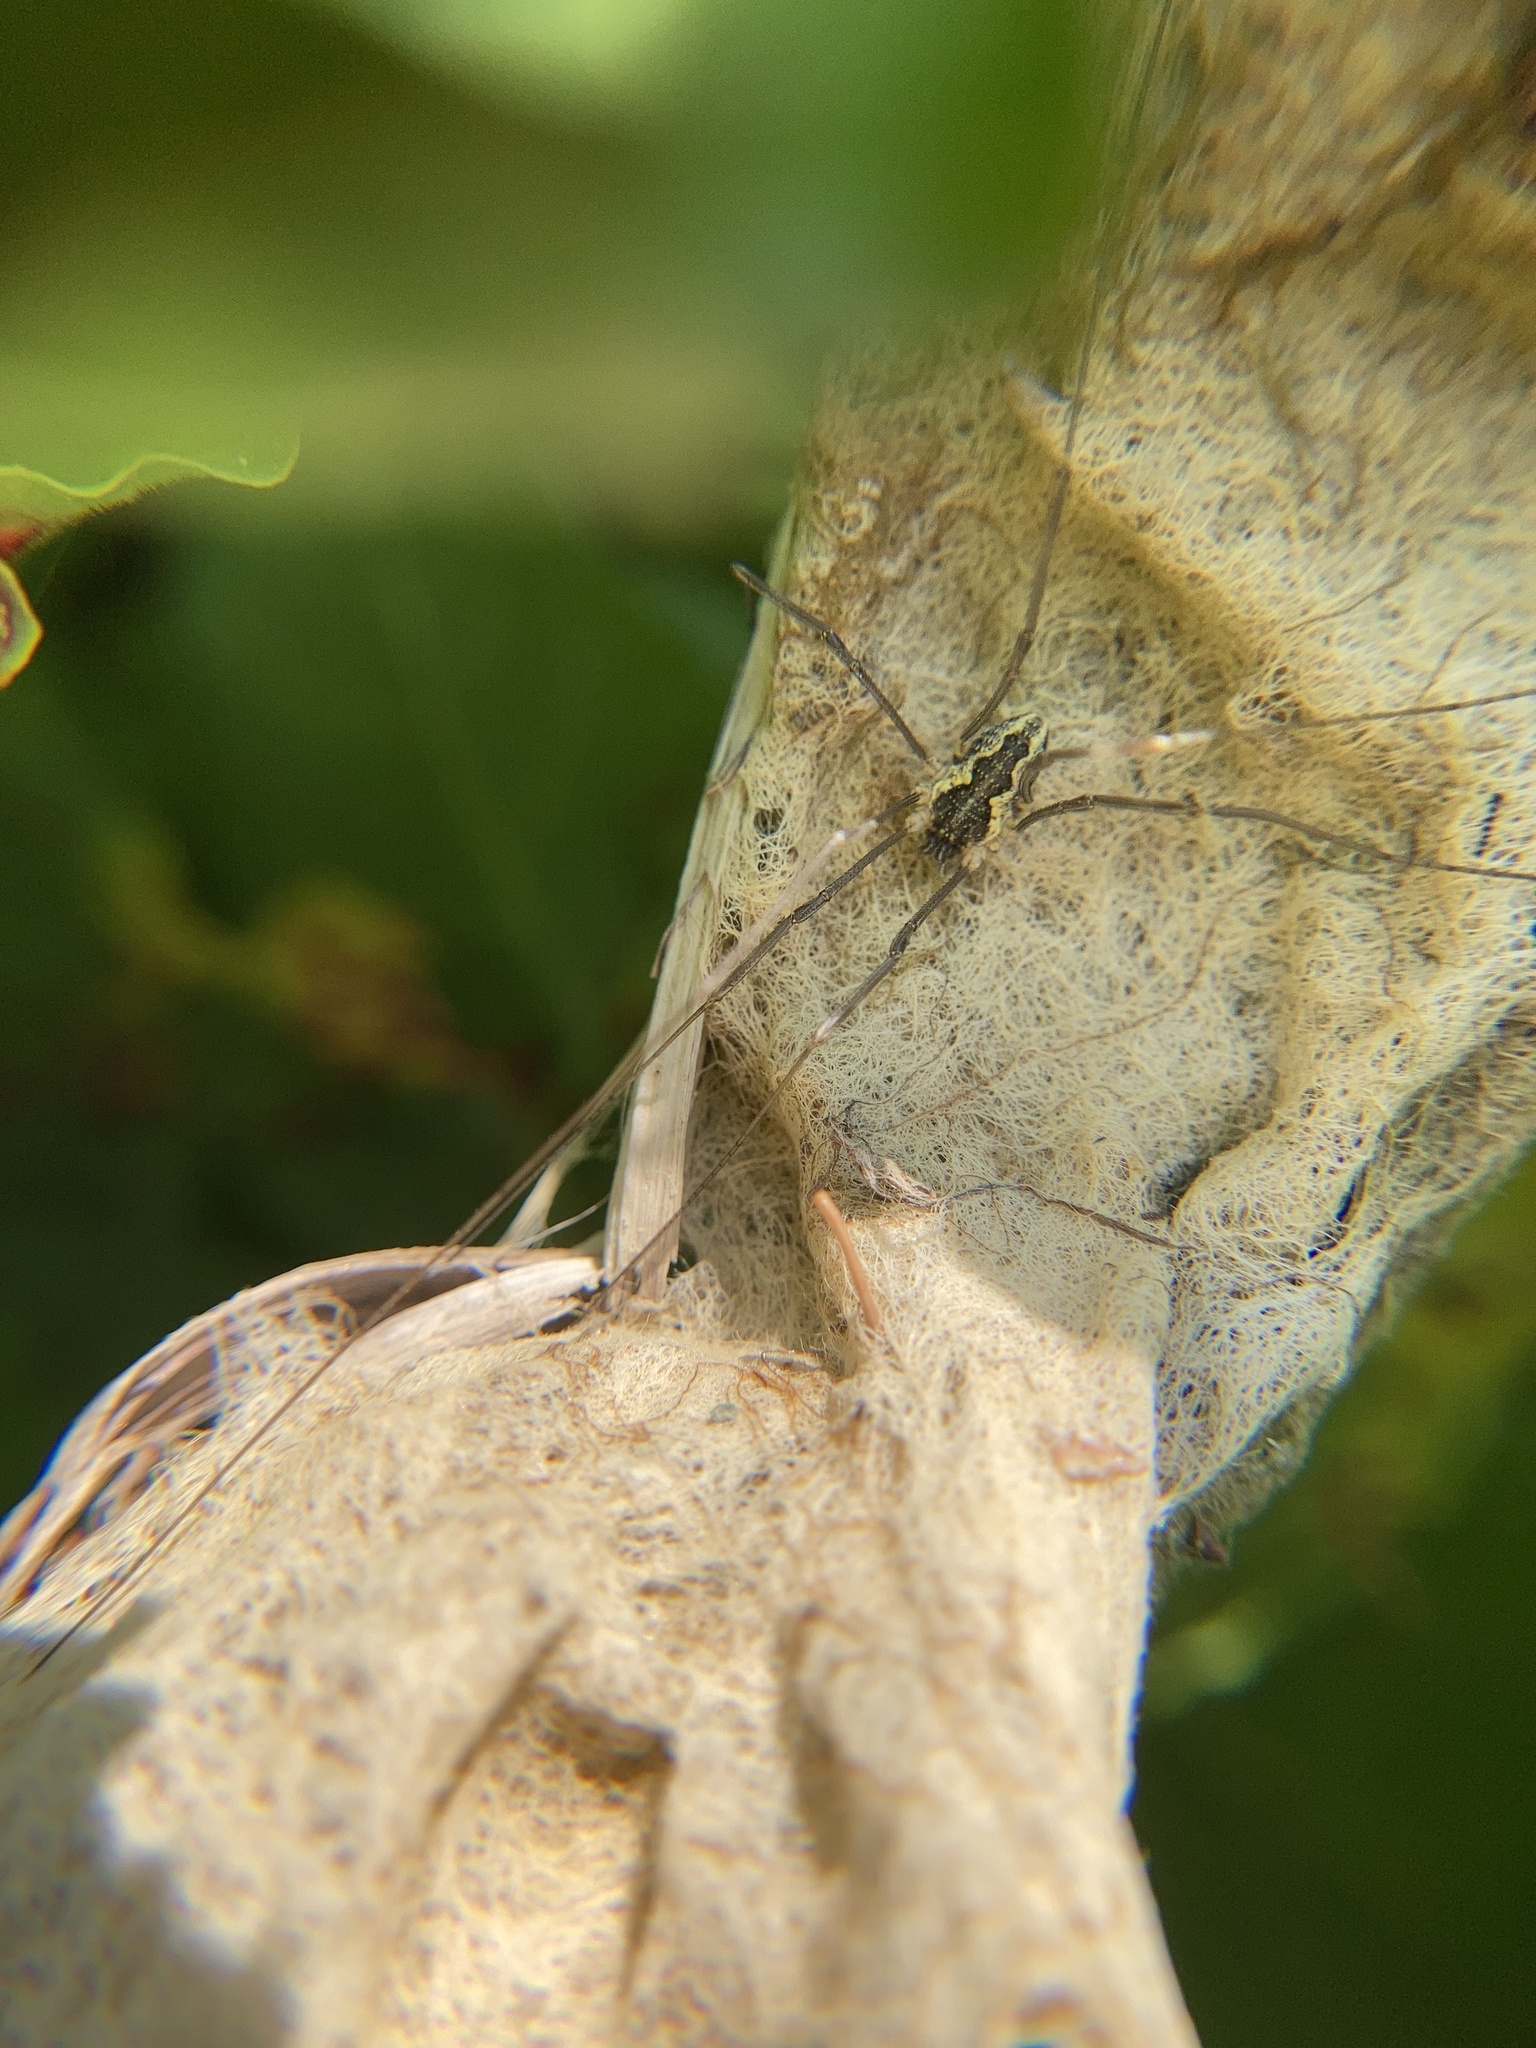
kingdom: Animalia
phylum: Arthropoda
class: Arachnida
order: Opiliones
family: Phalangiidae
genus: Mitopus
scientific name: Mitopus morio
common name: Saddleback harvestman
